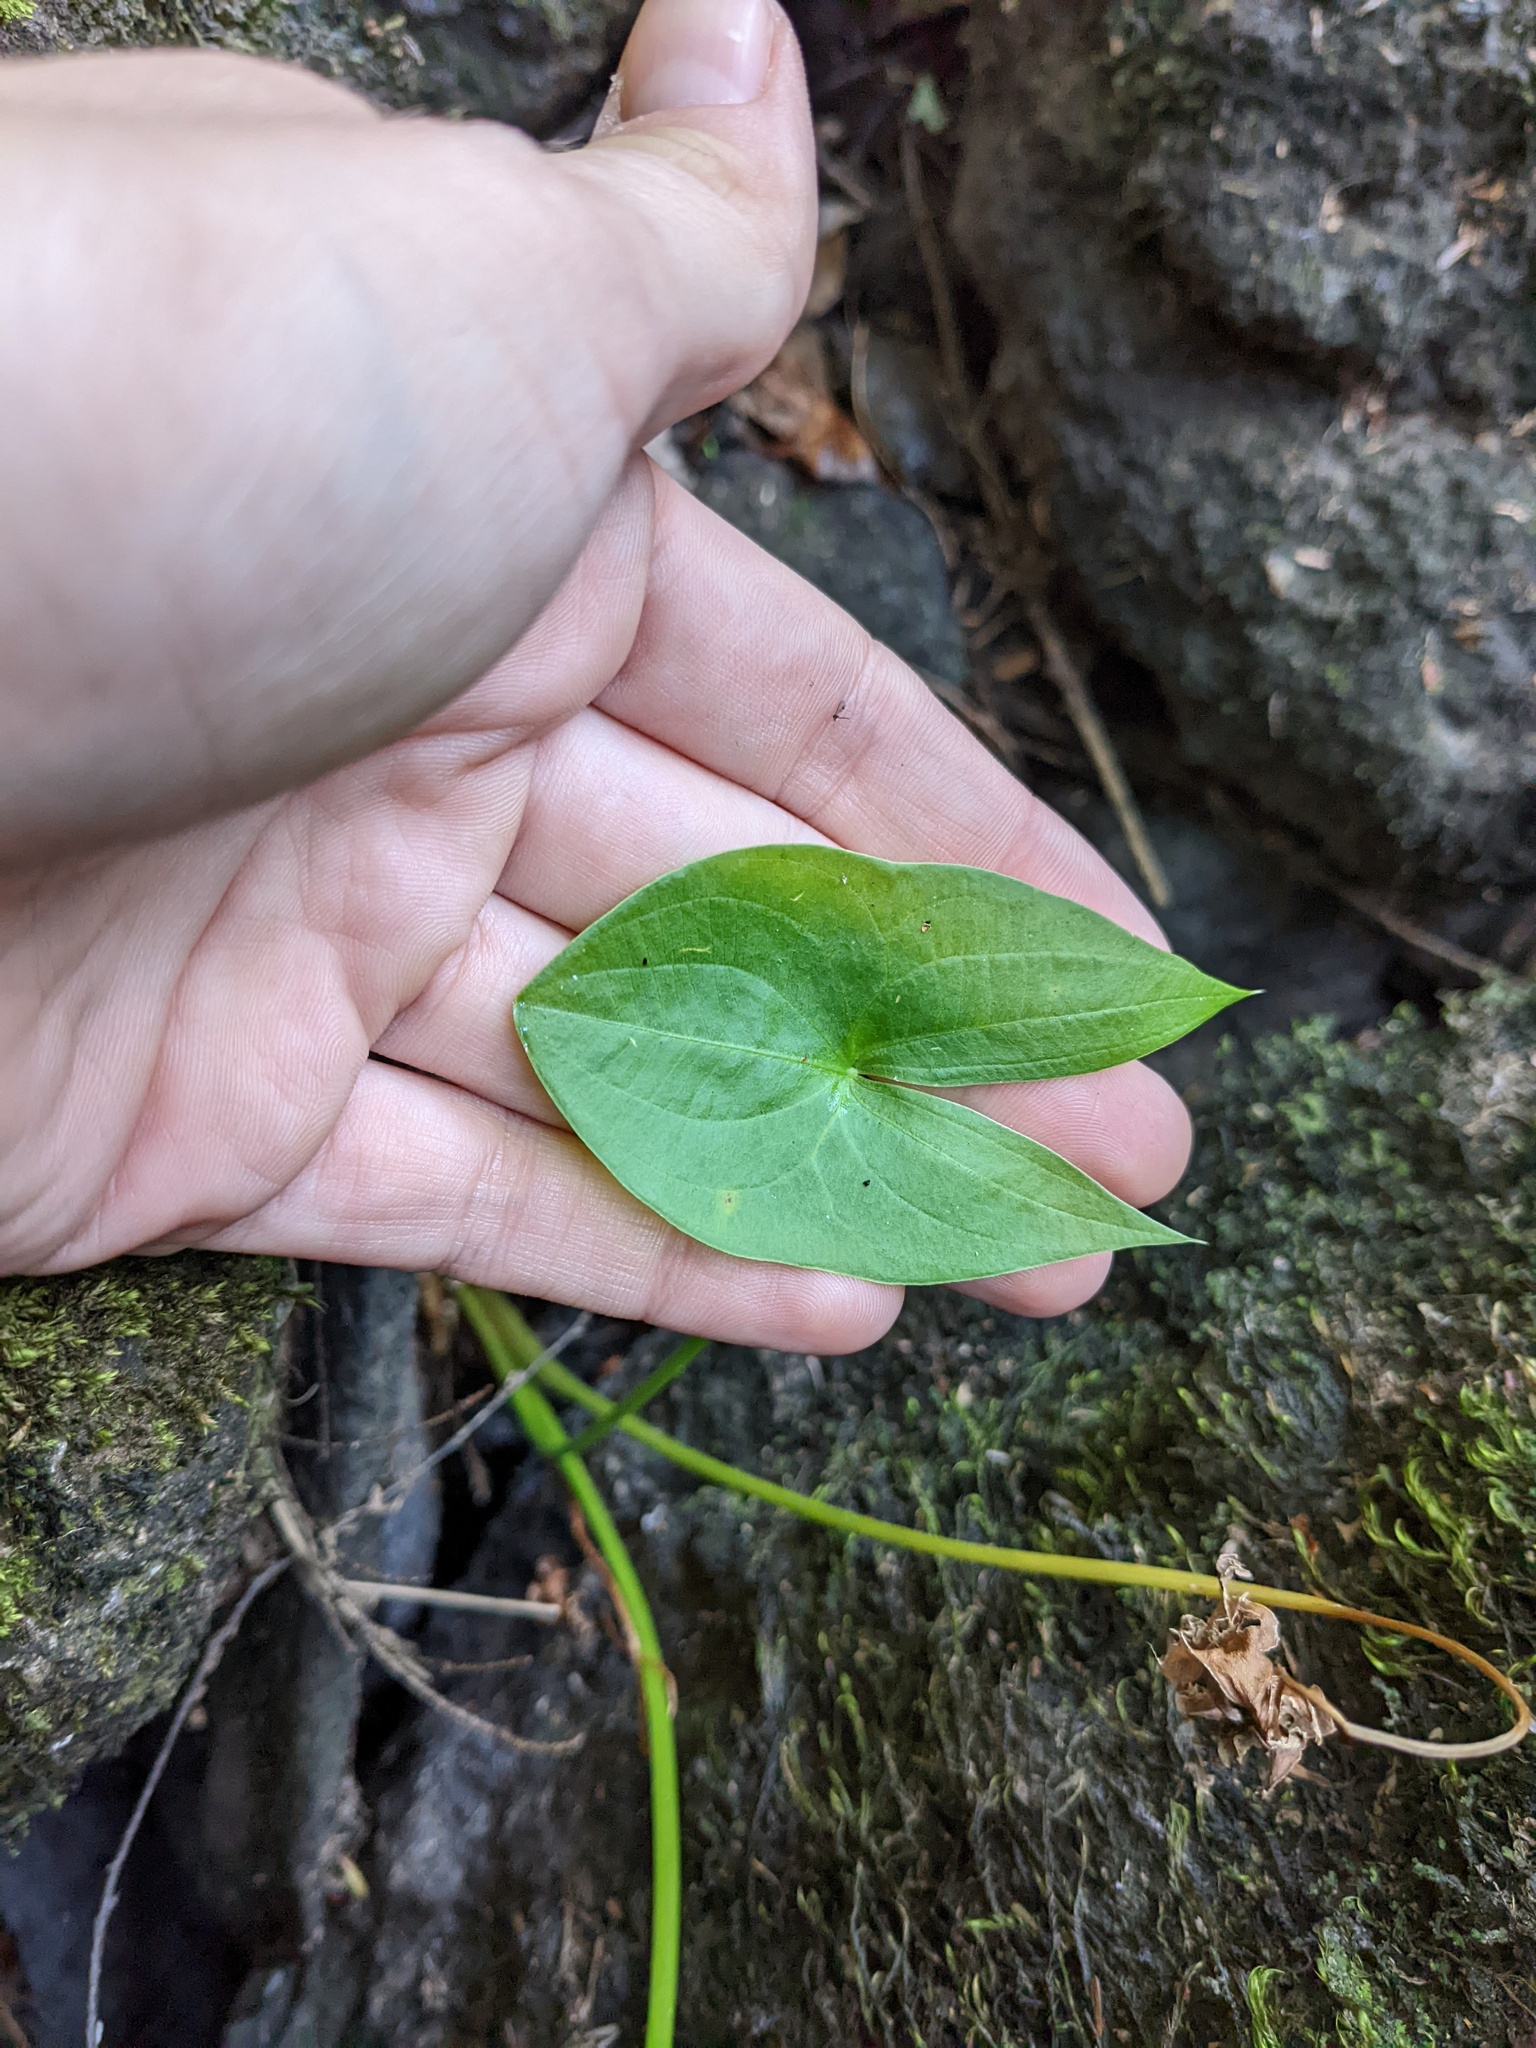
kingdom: Plantae
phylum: Tracheophyta
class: Liliopsida
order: Alismatales
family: Alismataceae
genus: Sagittaria
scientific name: Sagittaria latifolia
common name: Duck-potato
